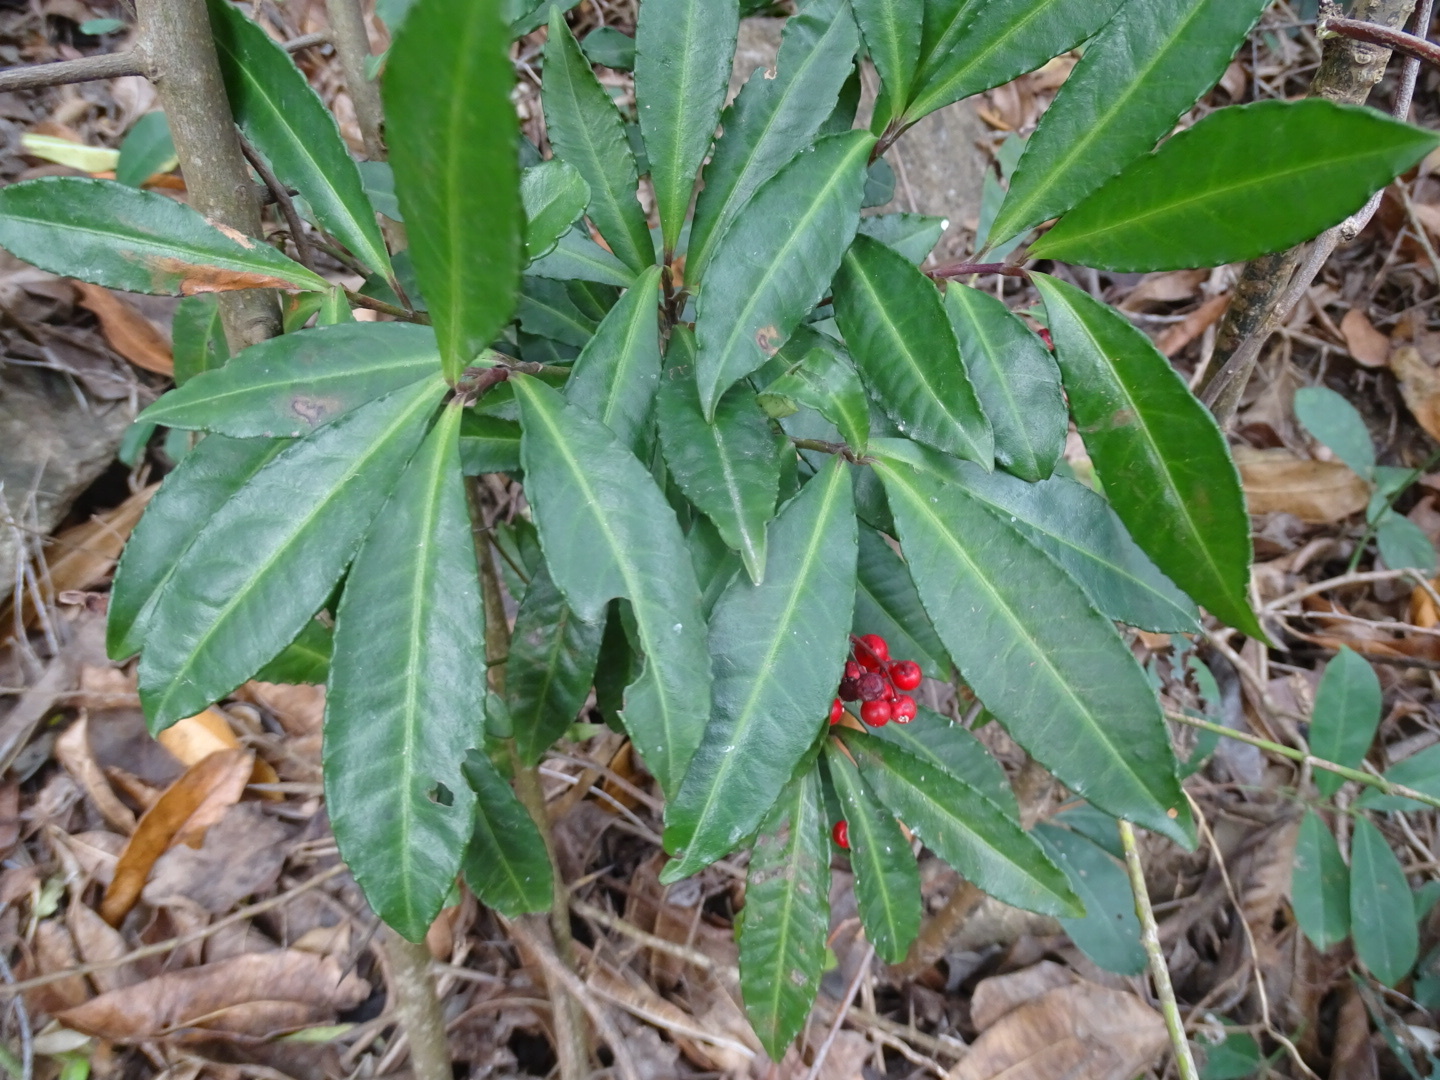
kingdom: Plantae
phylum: Tracheophyta
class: Magnoliopsida
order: Ericales
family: Primulaceae
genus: Ardisia
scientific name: Ardisia crenata
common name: Hen's eyes
